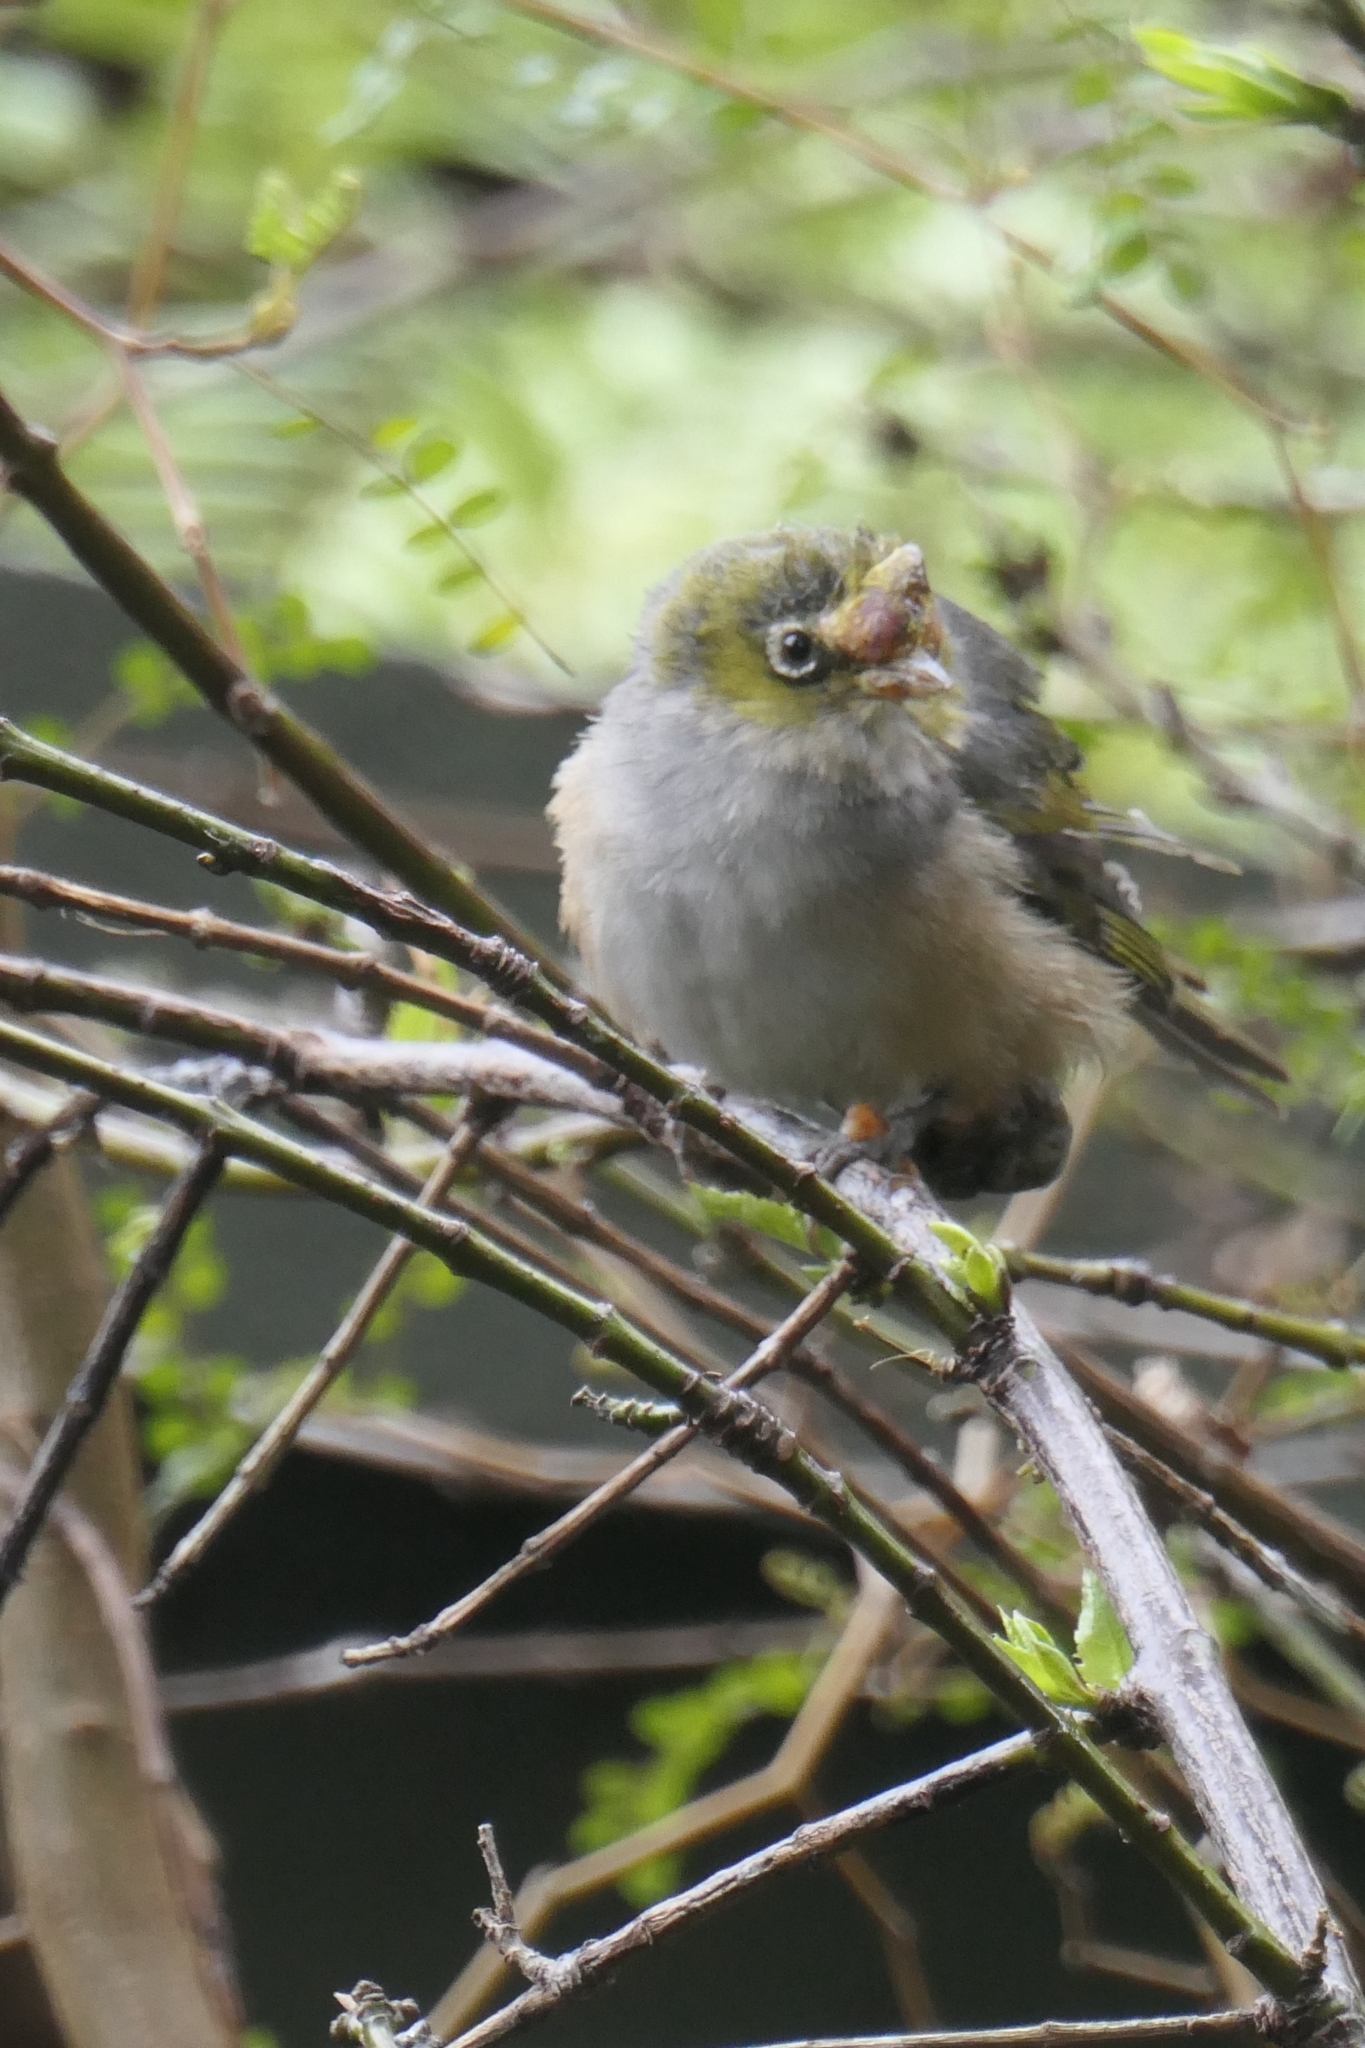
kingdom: Animalia
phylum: Chordata
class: Aves
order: Passeriformes
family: Zosteropidae
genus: Zosterops
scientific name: Zosterops lateralis
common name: Silvereye
